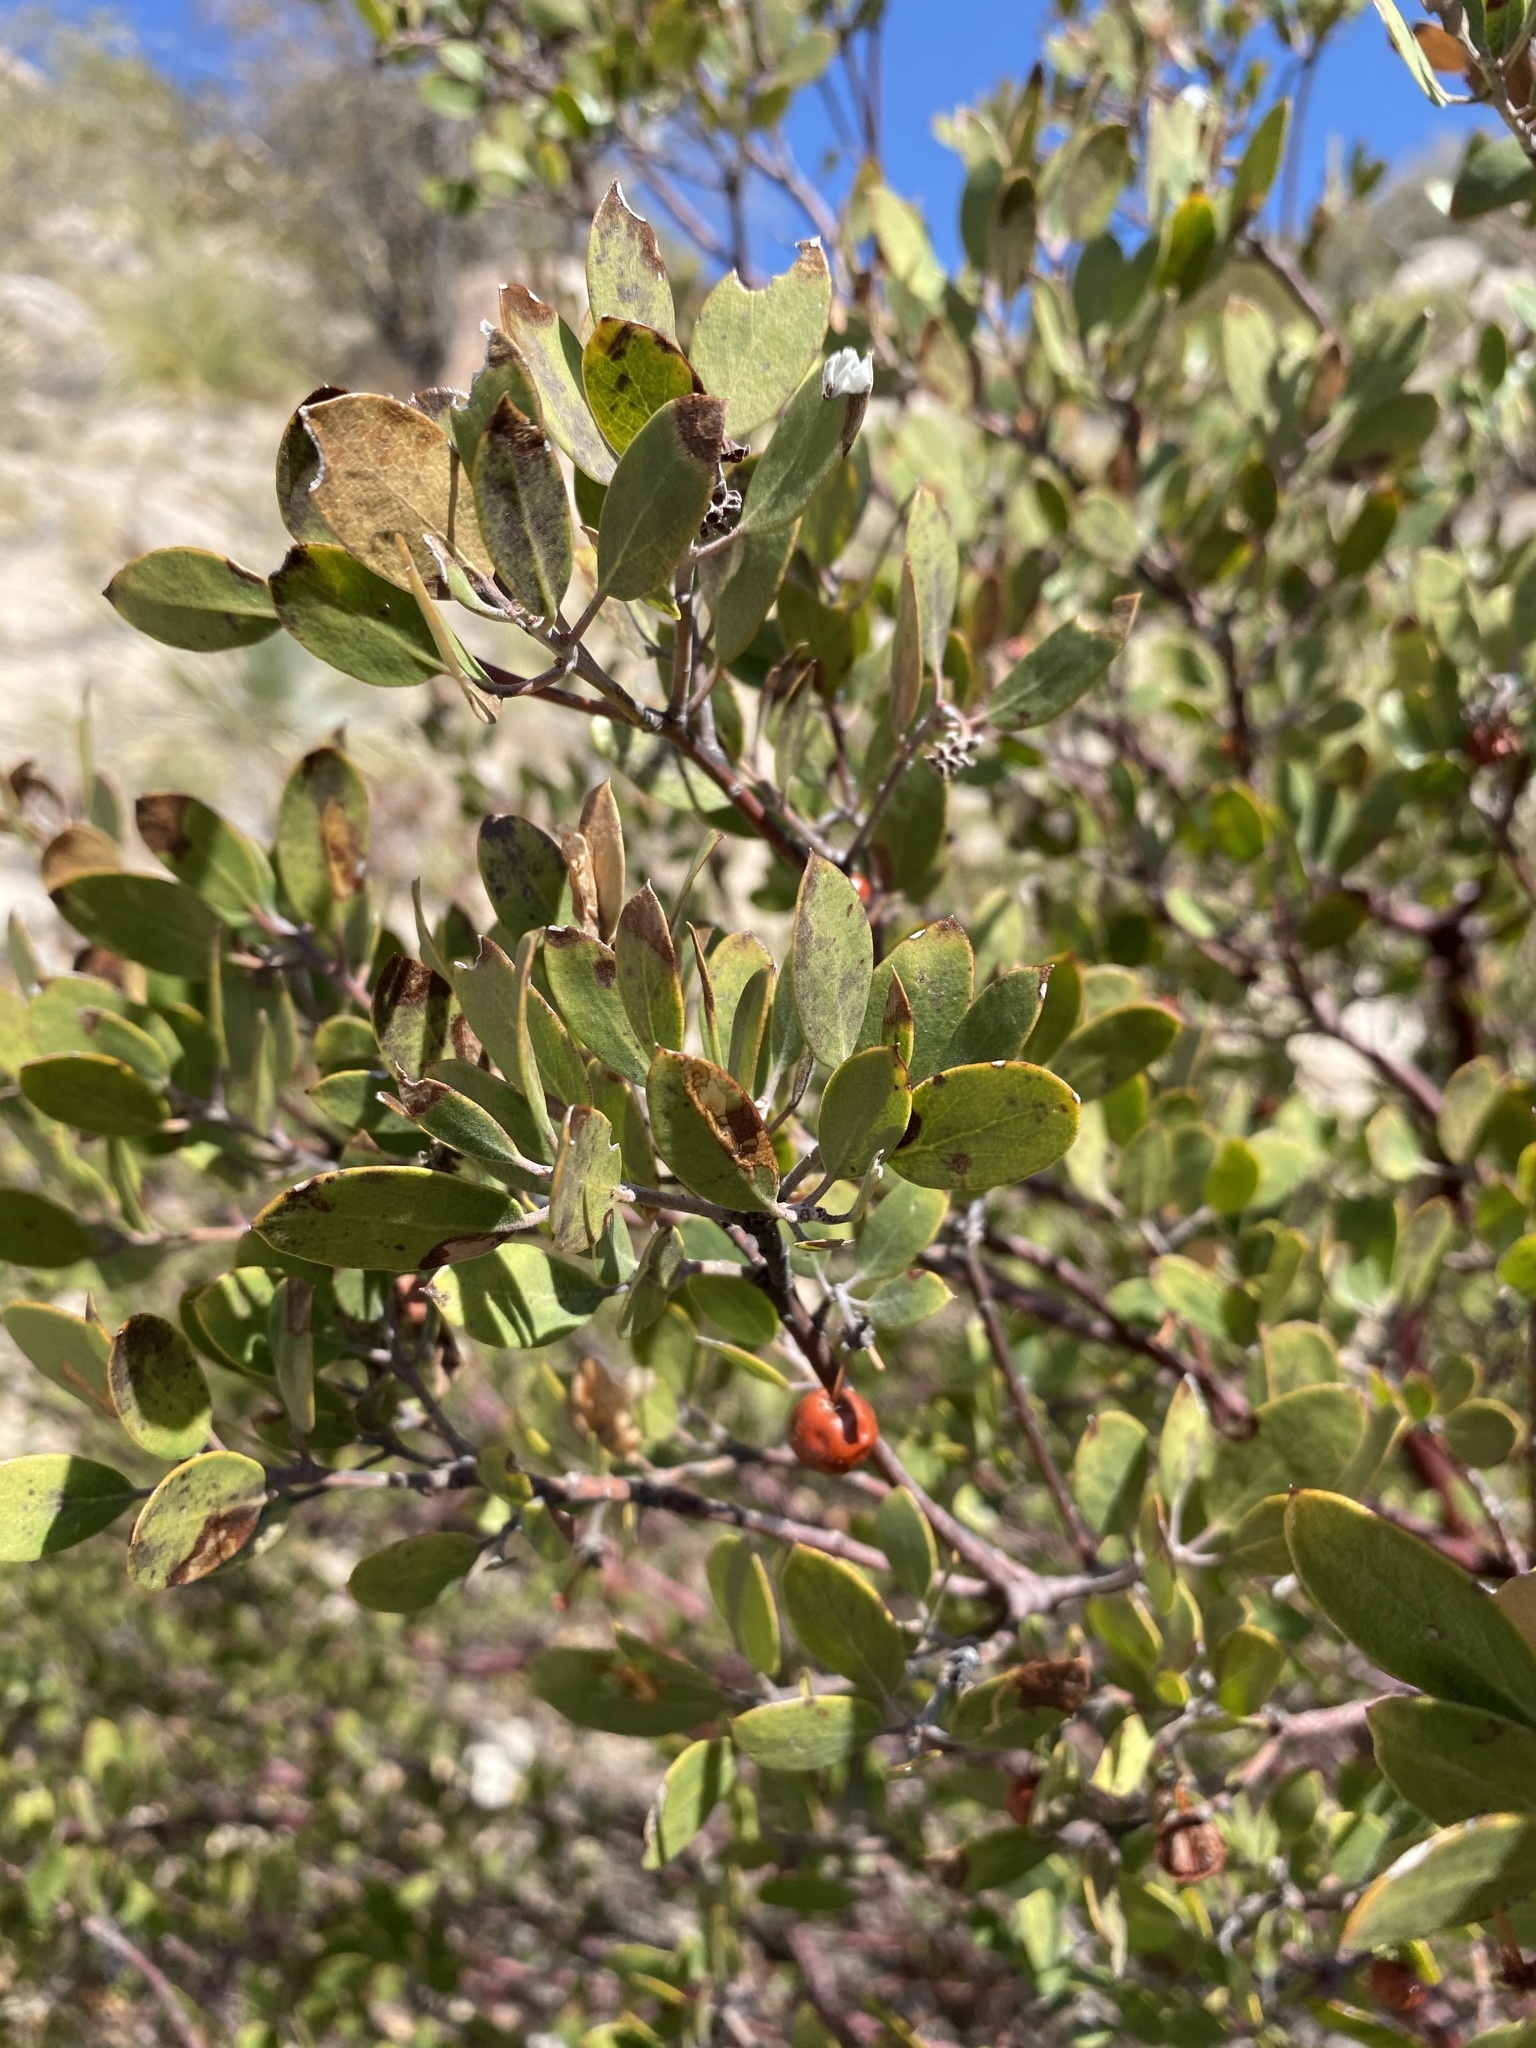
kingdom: Plantae
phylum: Tracheophyta
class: Magnoliopsida
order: Ericales
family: Ericaceae
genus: Arctostaphylos
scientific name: Arctostaphylos pungens
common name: Mexican manzanita
